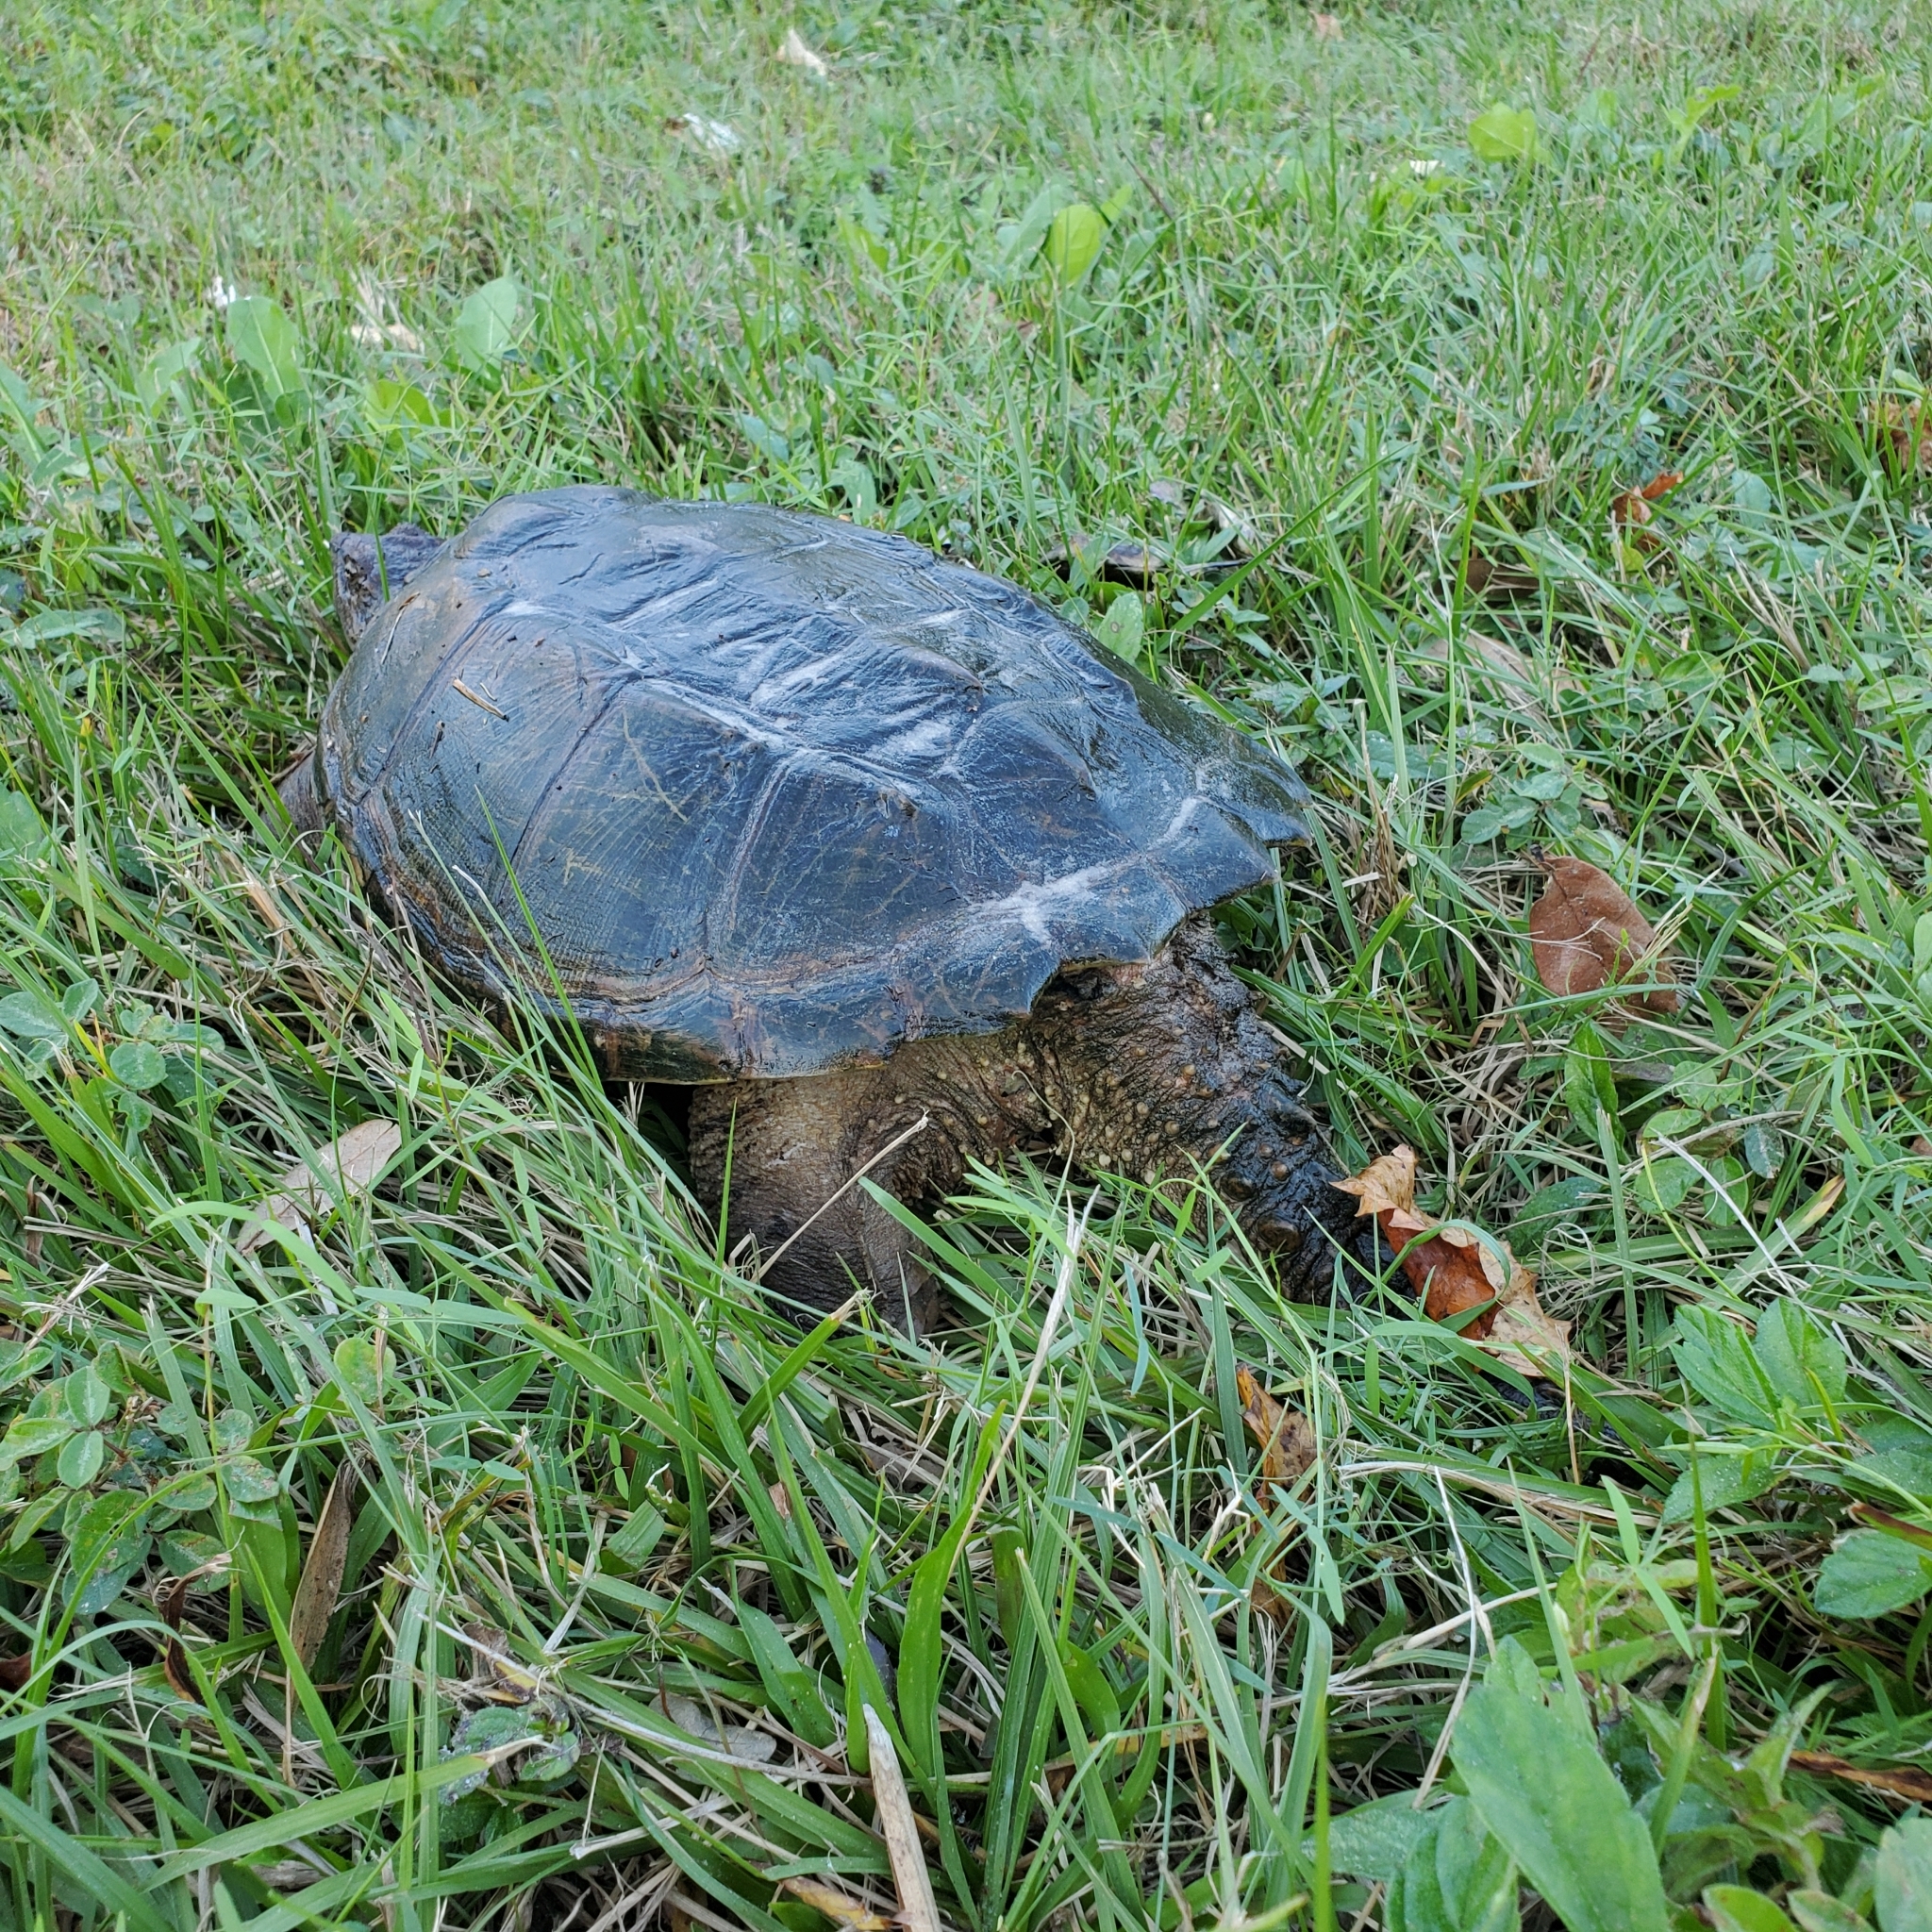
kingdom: Animalia
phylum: Chordata
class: Testudines
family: Chelydridae
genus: Chelydra
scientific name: Chelydra serpentina
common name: Common snapping turtle
